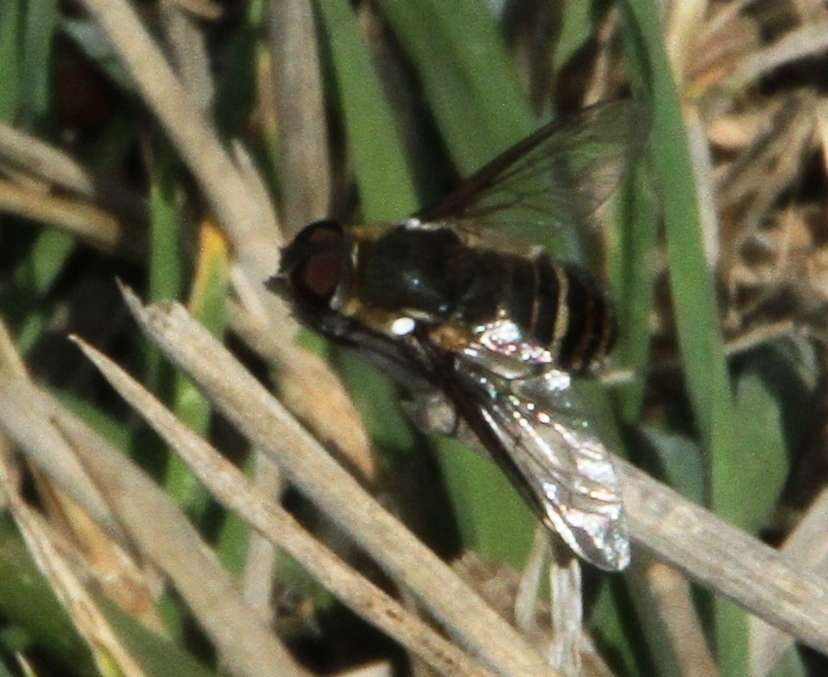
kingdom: Animalia
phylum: Arthropoda
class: Insecta
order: Diptera
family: Bombyliidae
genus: Villa
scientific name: Villa
